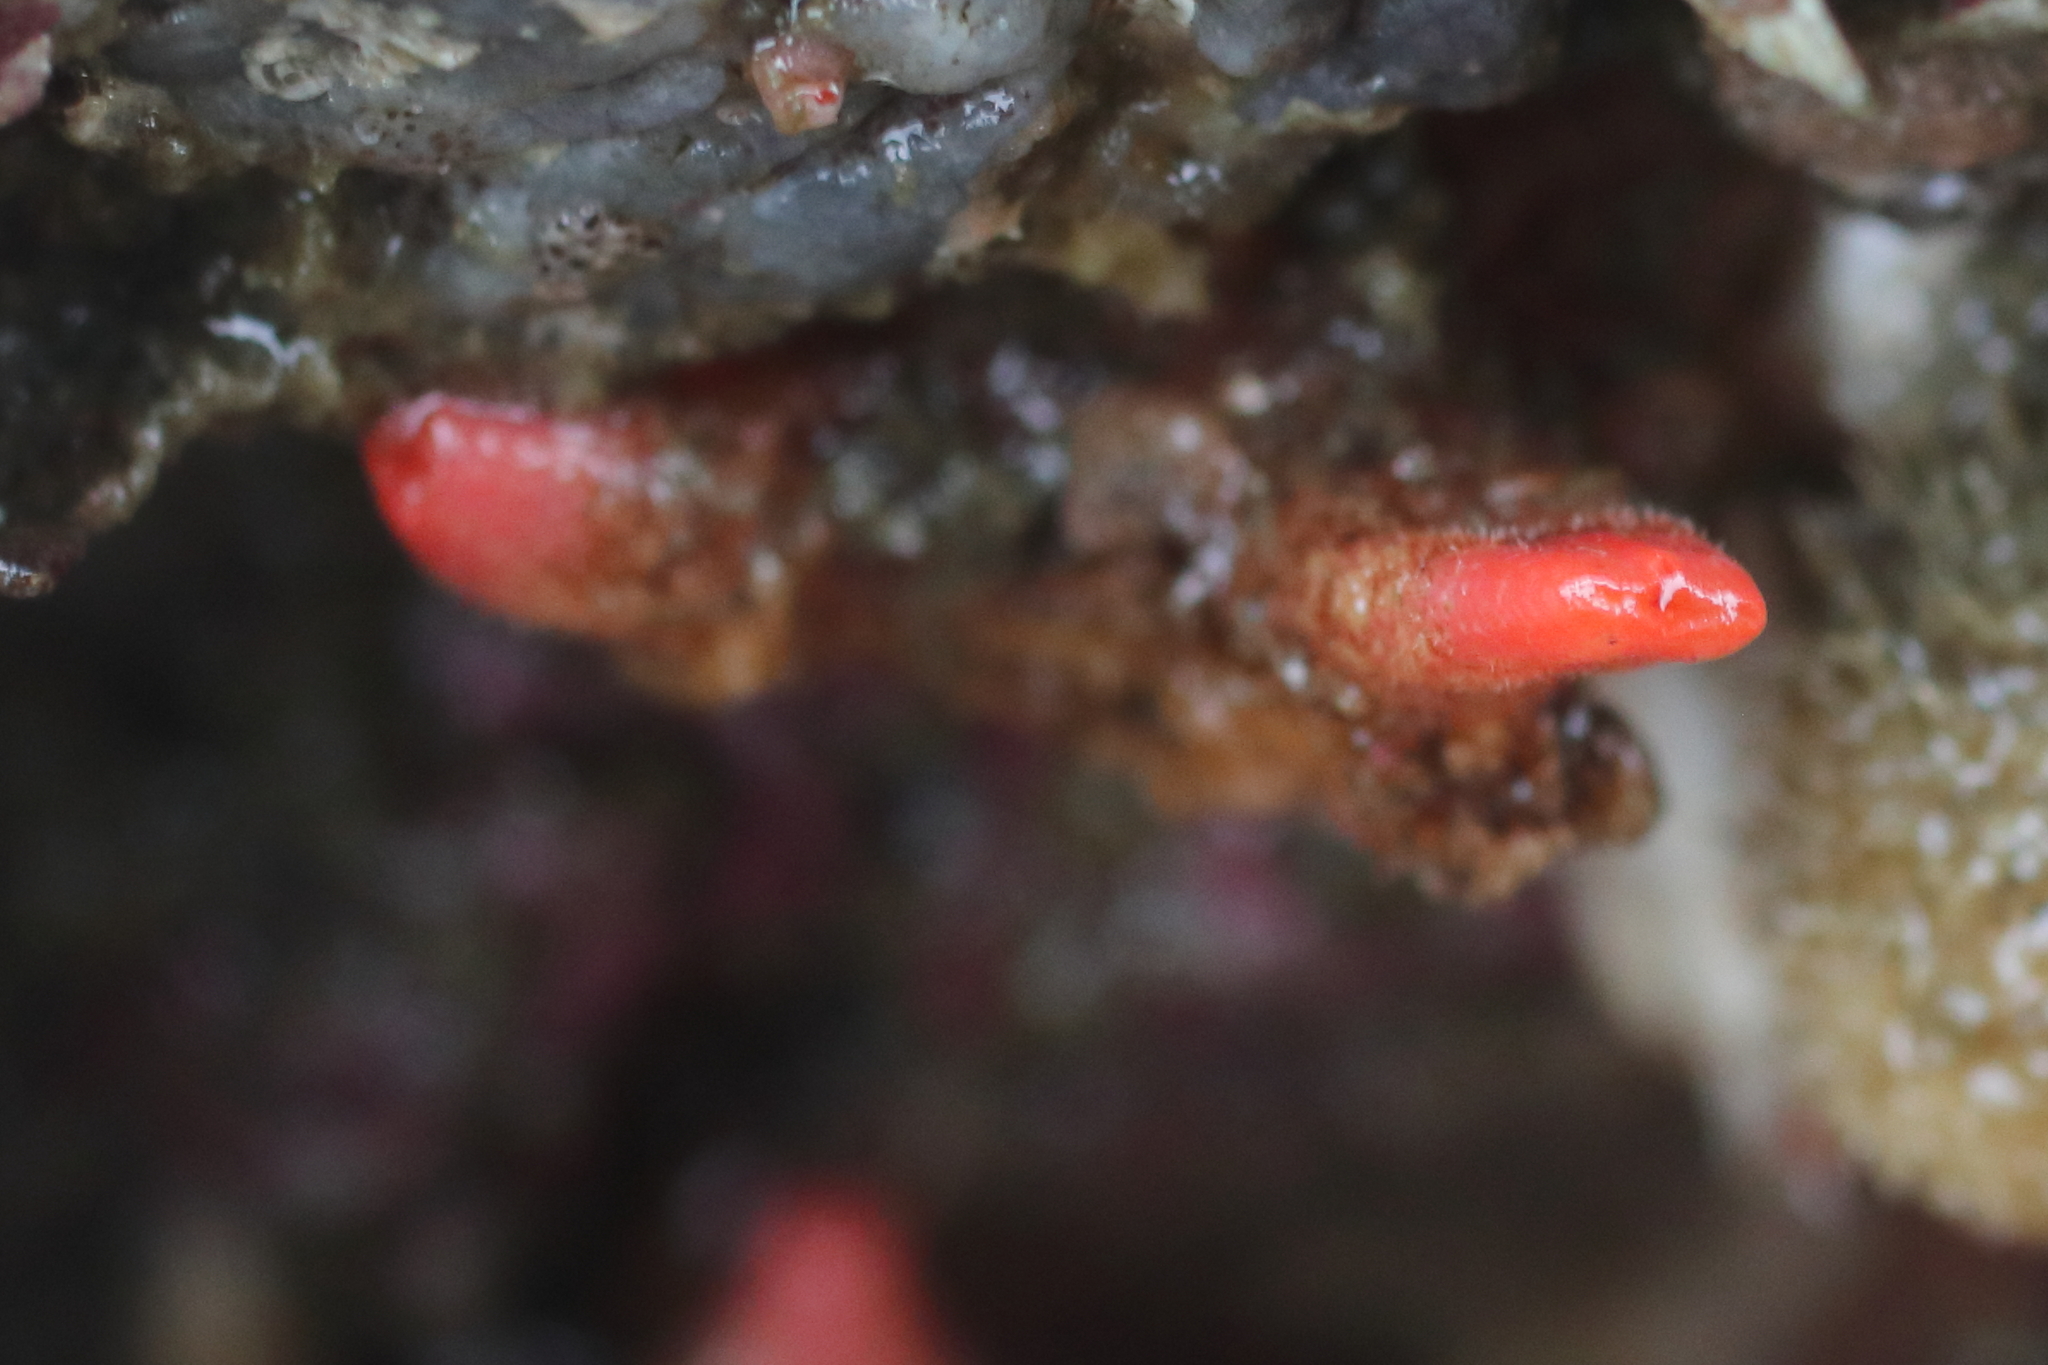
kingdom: Animalia
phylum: Chordata
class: Ascidiacea
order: Stolidobranchia
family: Pyuridae
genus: Pyura
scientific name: Pyura haustor
